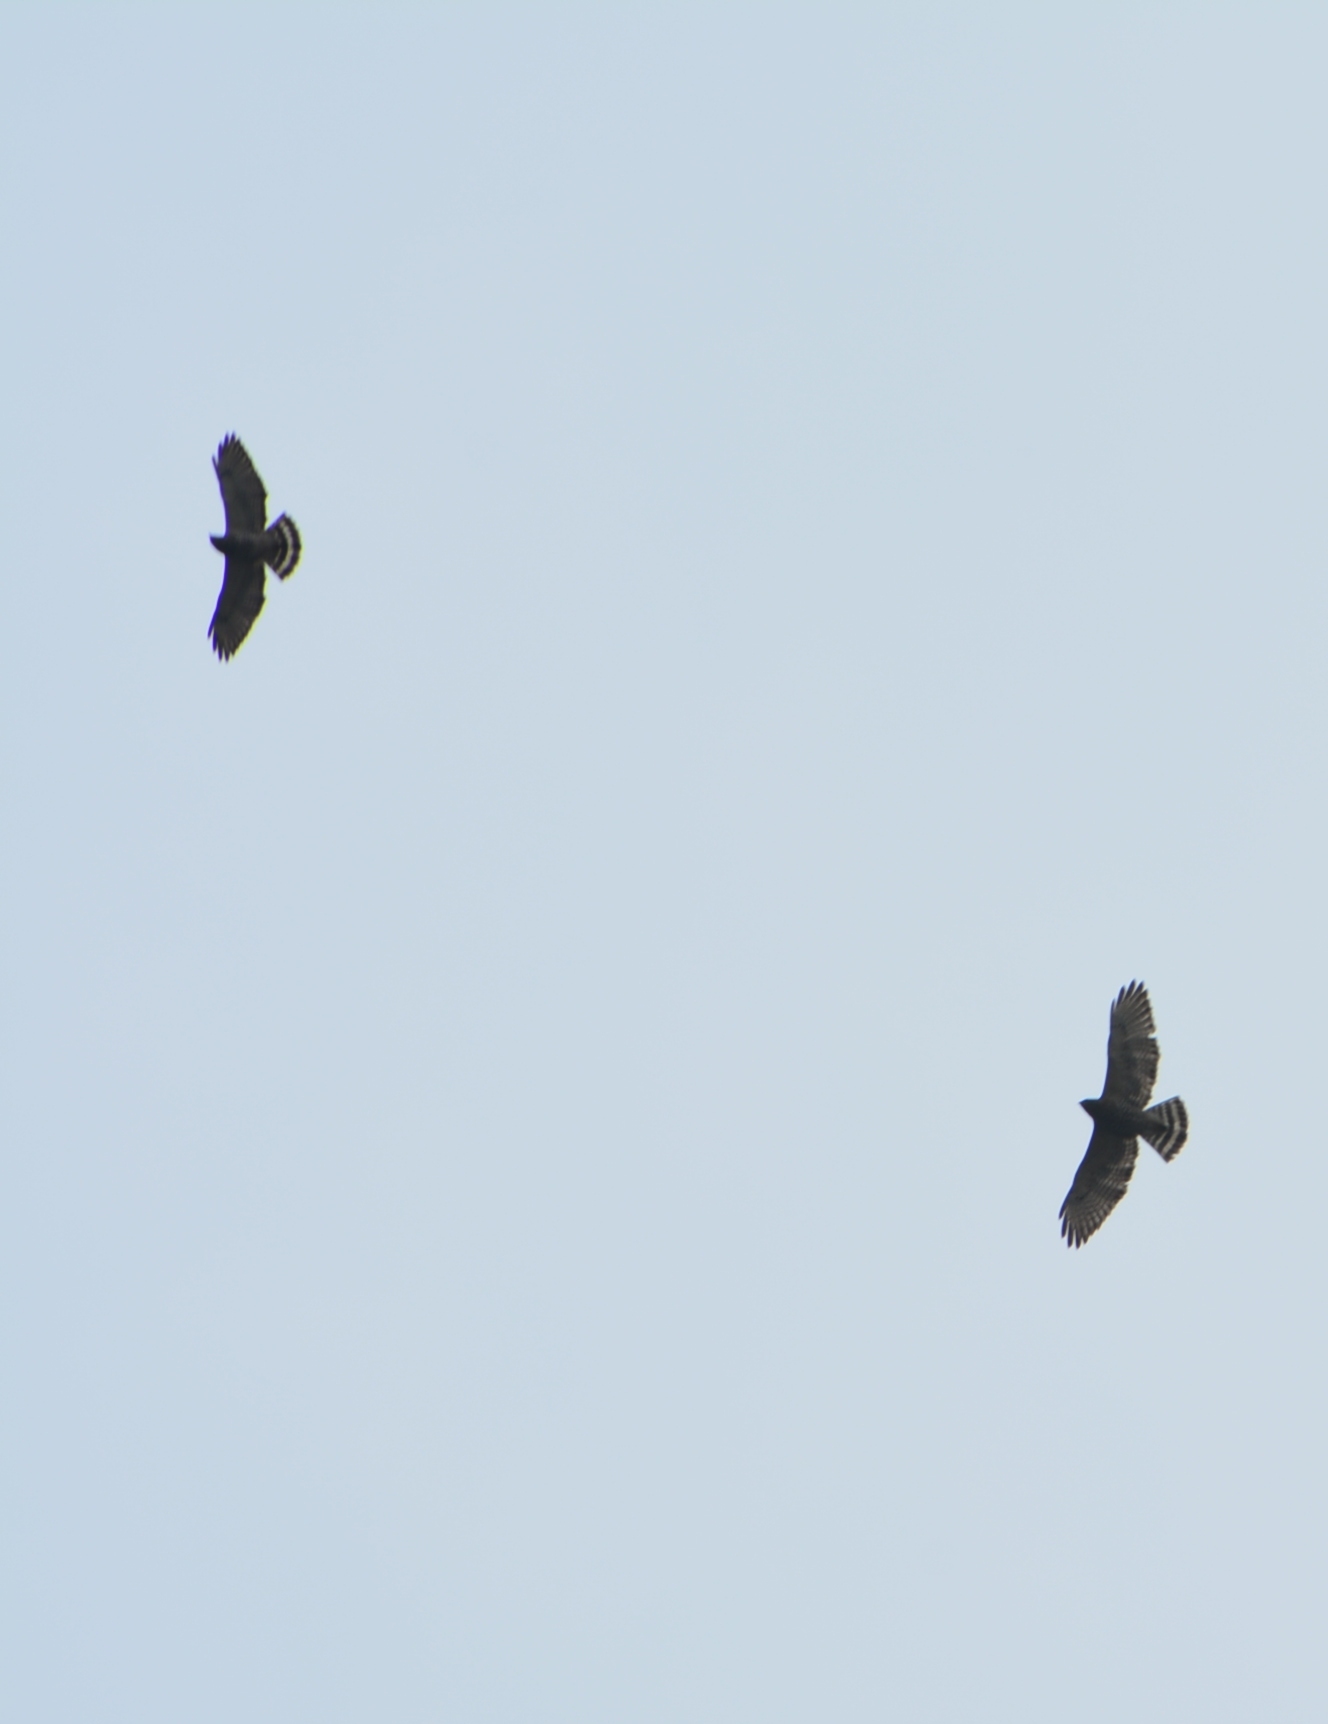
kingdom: Animalia
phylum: Chordata
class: Aves
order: Accipitriformes
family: Accipitridae
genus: Buteo
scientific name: Buteo nitidus
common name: Grey-lined hawk
